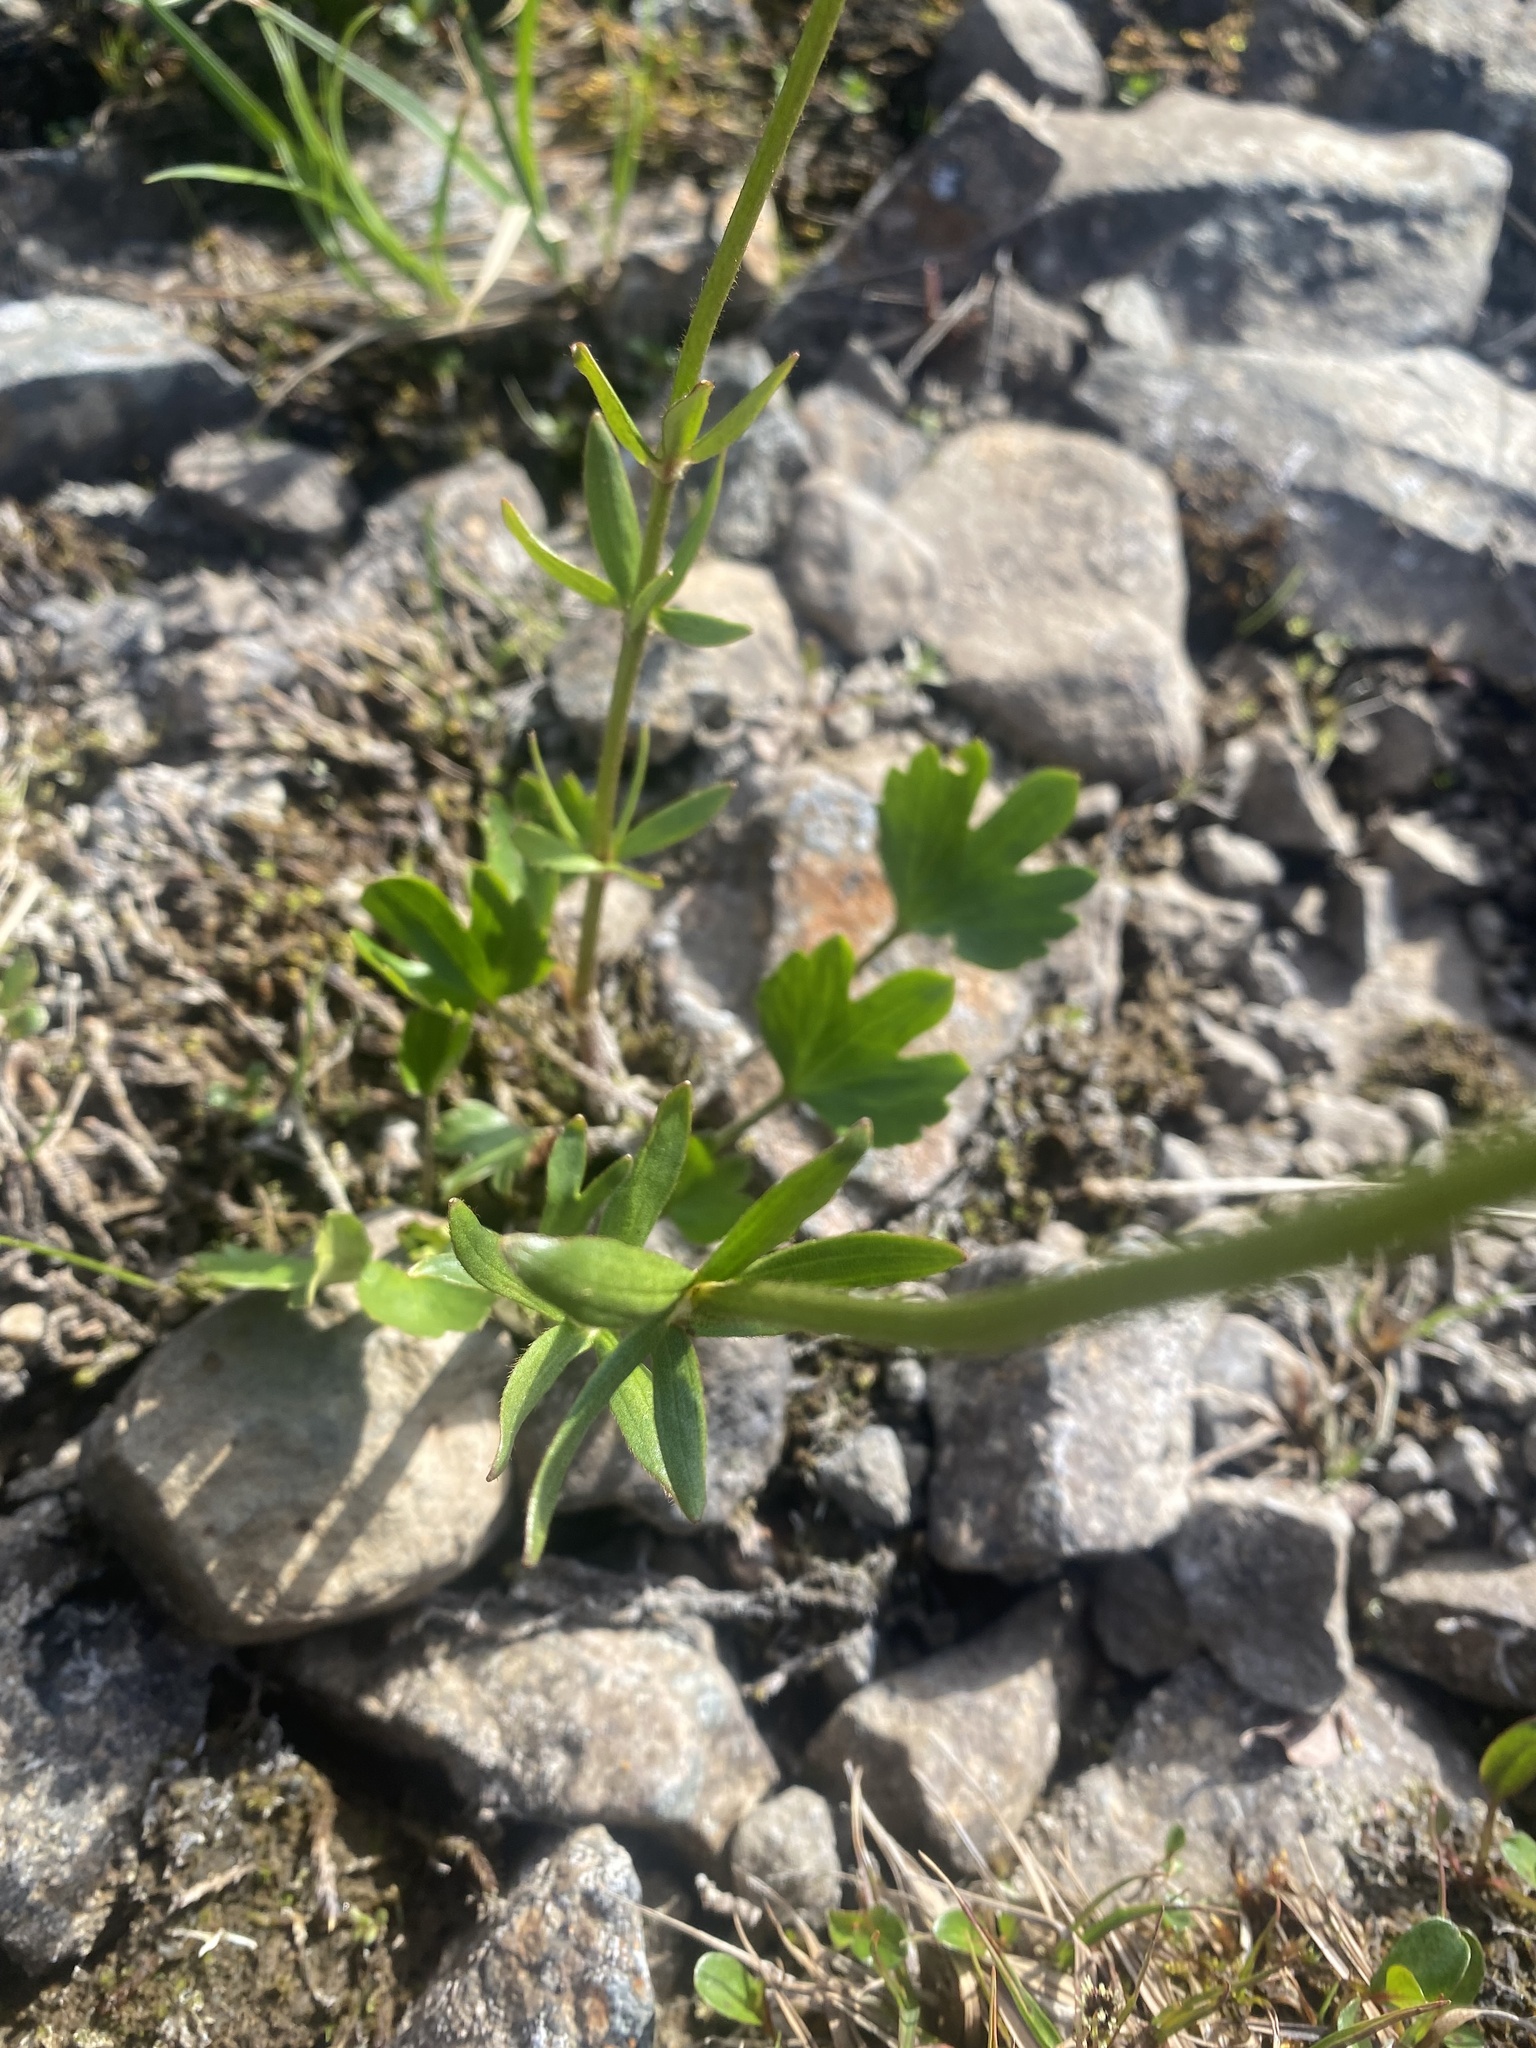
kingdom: Plantae
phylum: Tracheophyta
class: Magnoliopsida
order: Ranunculales
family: Ranunculaceae
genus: Ranunculus
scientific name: Ranunculus nivalis
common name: Snow buttercup
